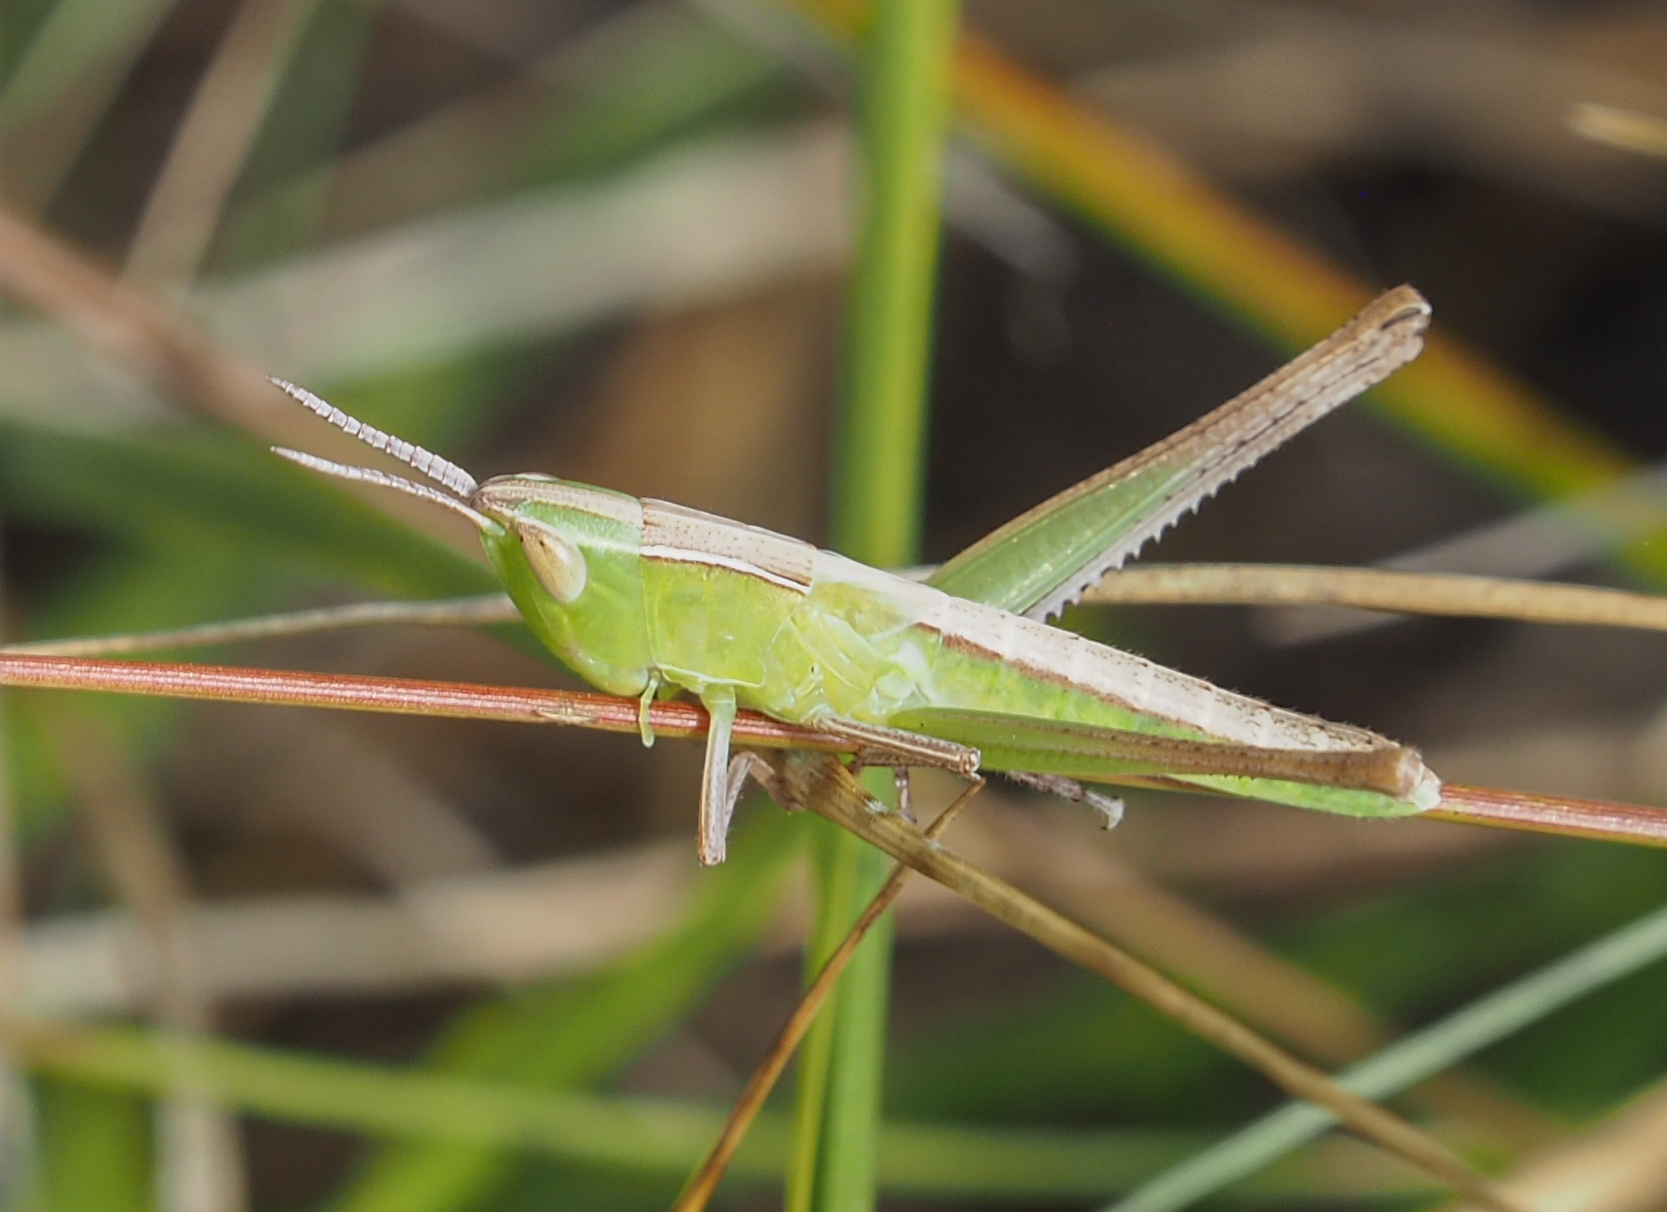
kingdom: Animalia
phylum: Arthropoda
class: Insecta
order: Orthoptera
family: Acrididae
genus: Syrbula
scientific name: Syrbula admirabilis
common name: Handsome grasshopper
